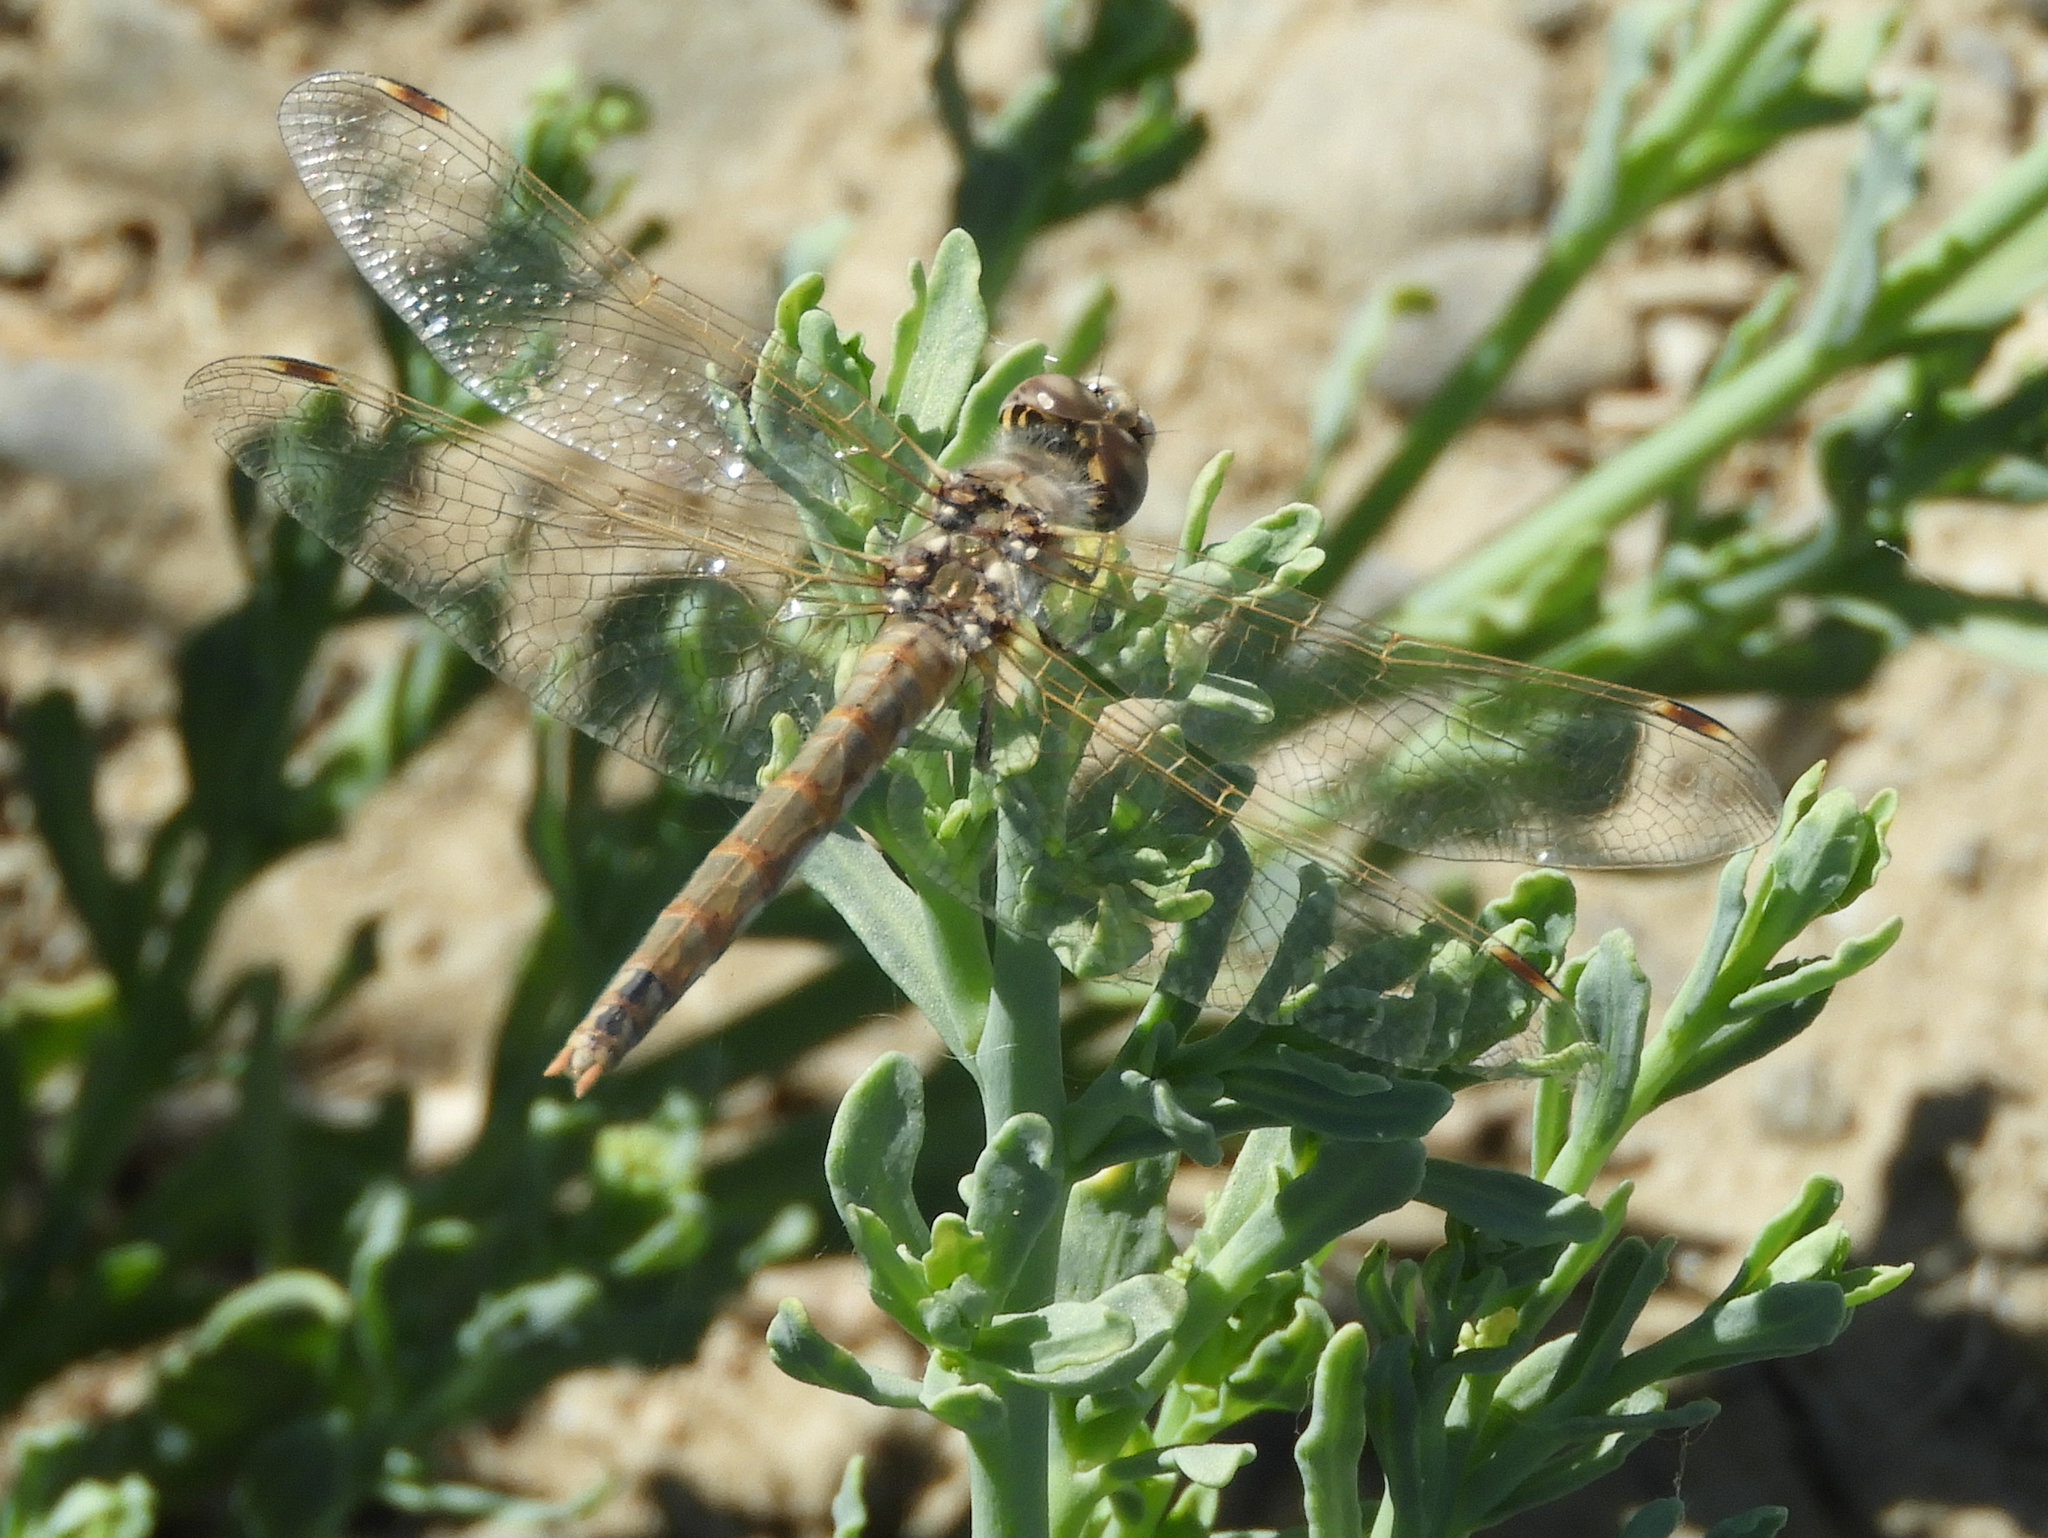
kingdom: Animalia
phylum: Arthropoda
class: Insecta
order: Odonata
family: Libellulidae
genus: Sympetrum
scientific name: Sympetrum corruptum
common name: Variegated meadowhawk
